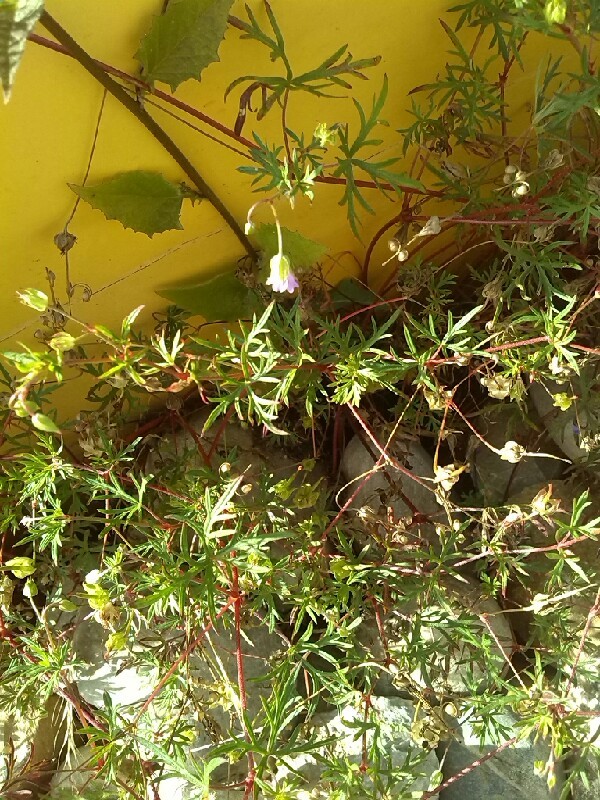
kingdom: Plantae
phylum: Tracheophyta
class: Magnoliopsida
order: Geraniales
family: Geraniaceae
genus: Geranium
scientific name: Geranium columbinum
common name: Long-stalked crane's-bill
